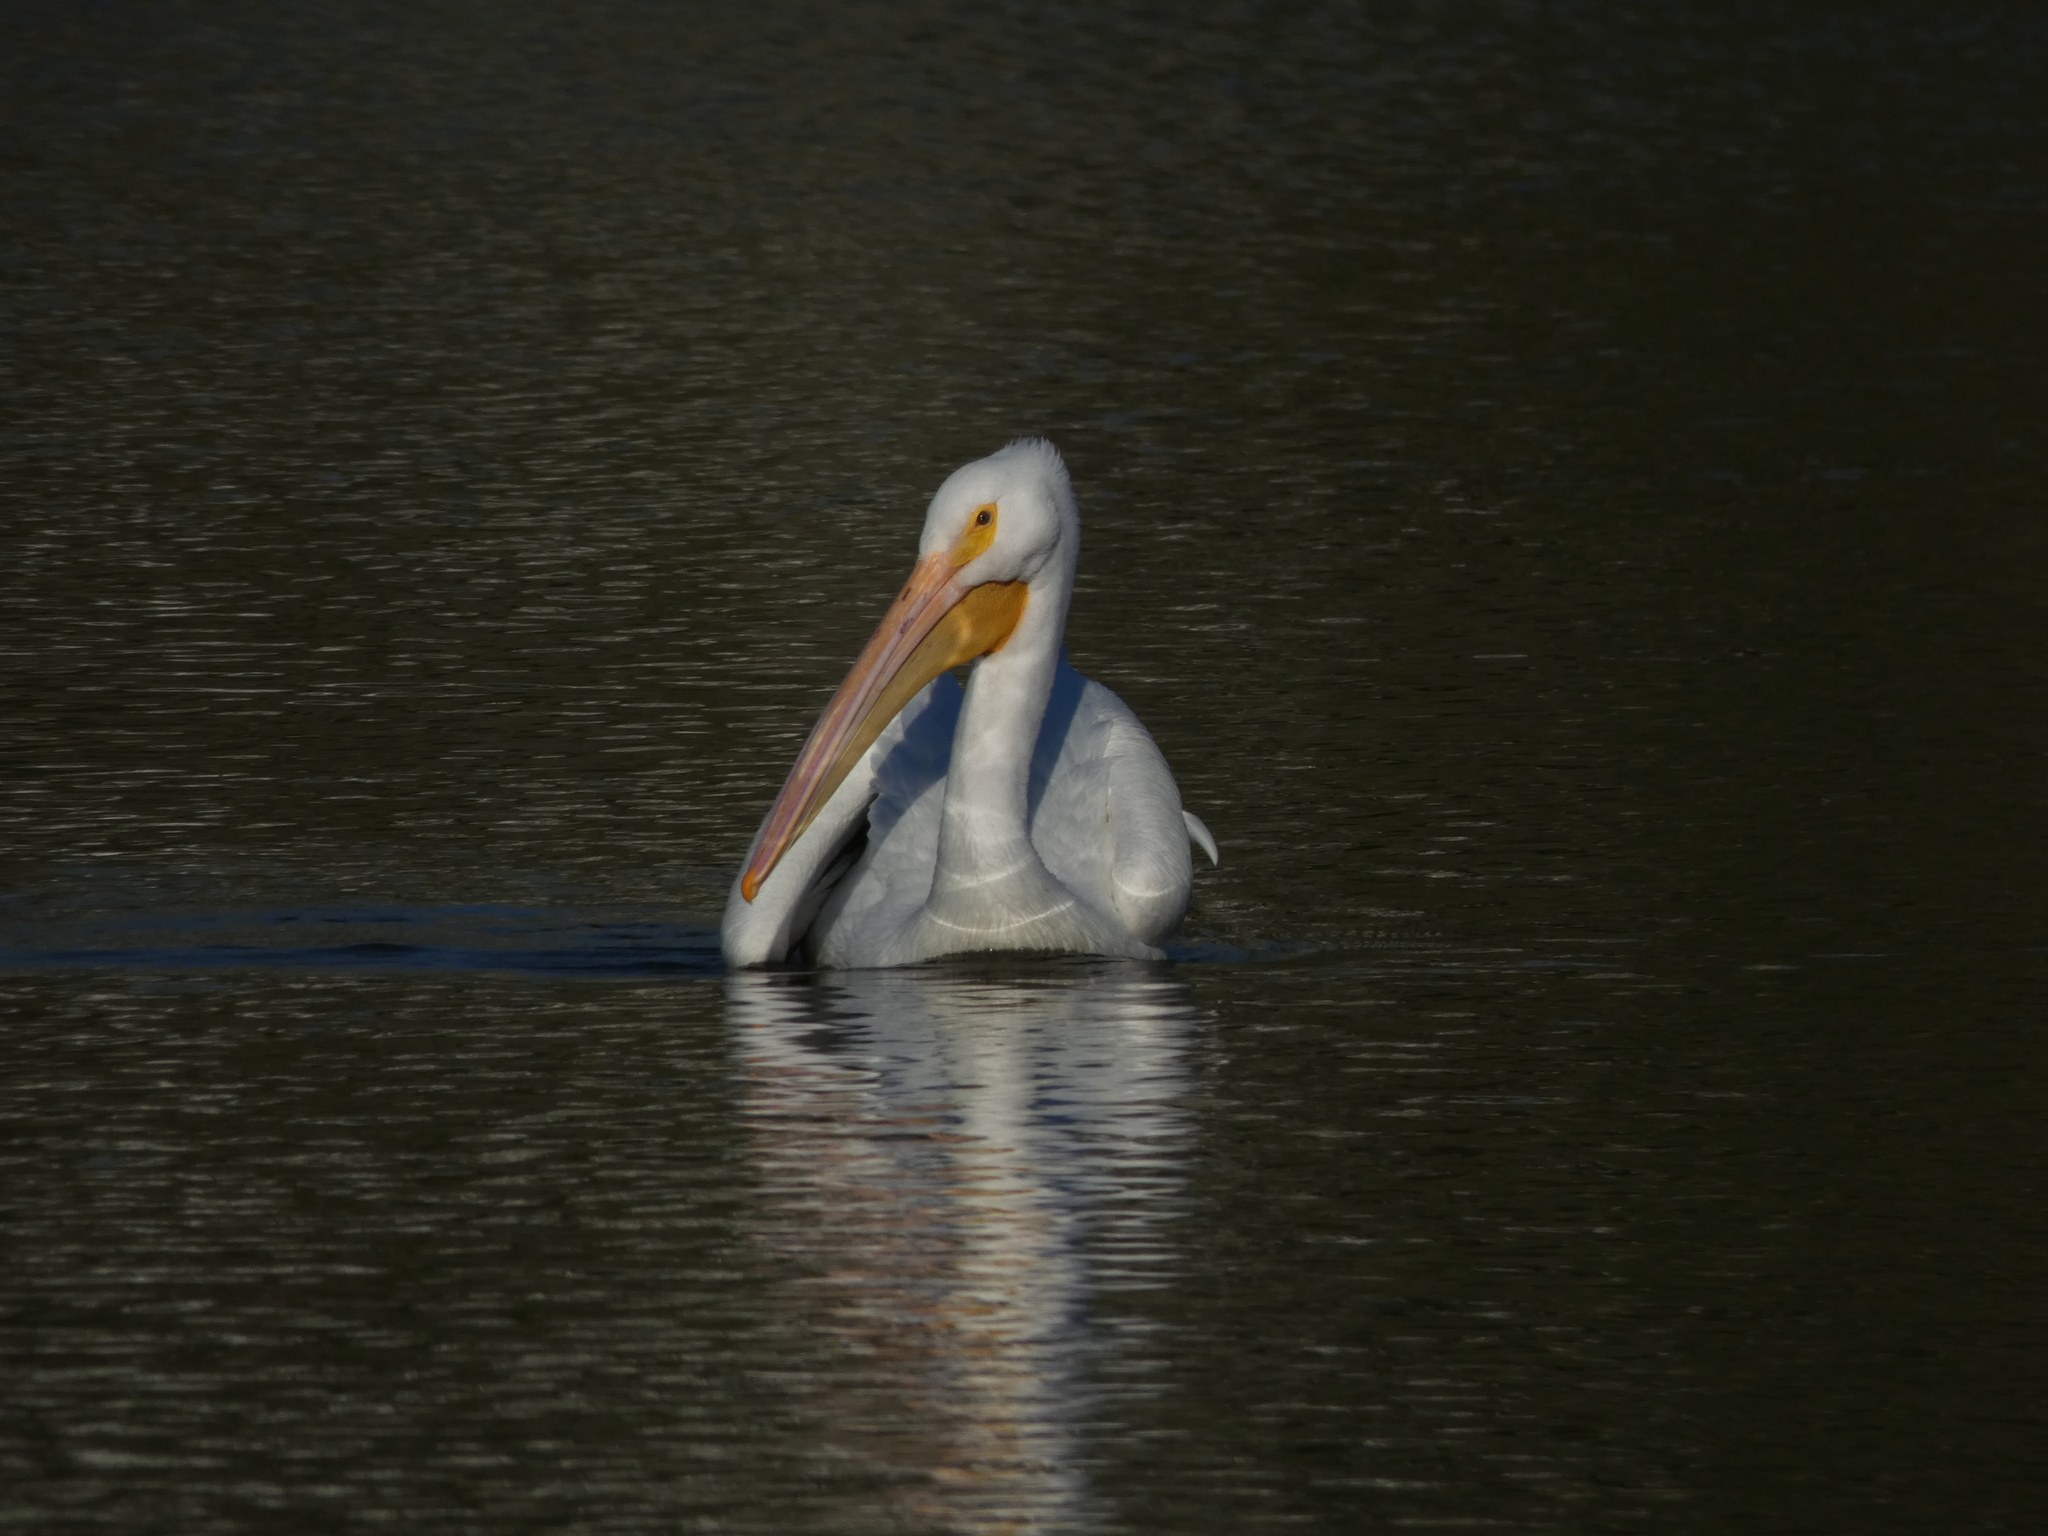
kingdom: Animalia
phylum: Chordata
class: Aves
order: Pelecaniformes
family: Pelecanidae
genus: Pelecanus
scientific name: Pelecanus erythrorhynchos
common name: American white pelican
